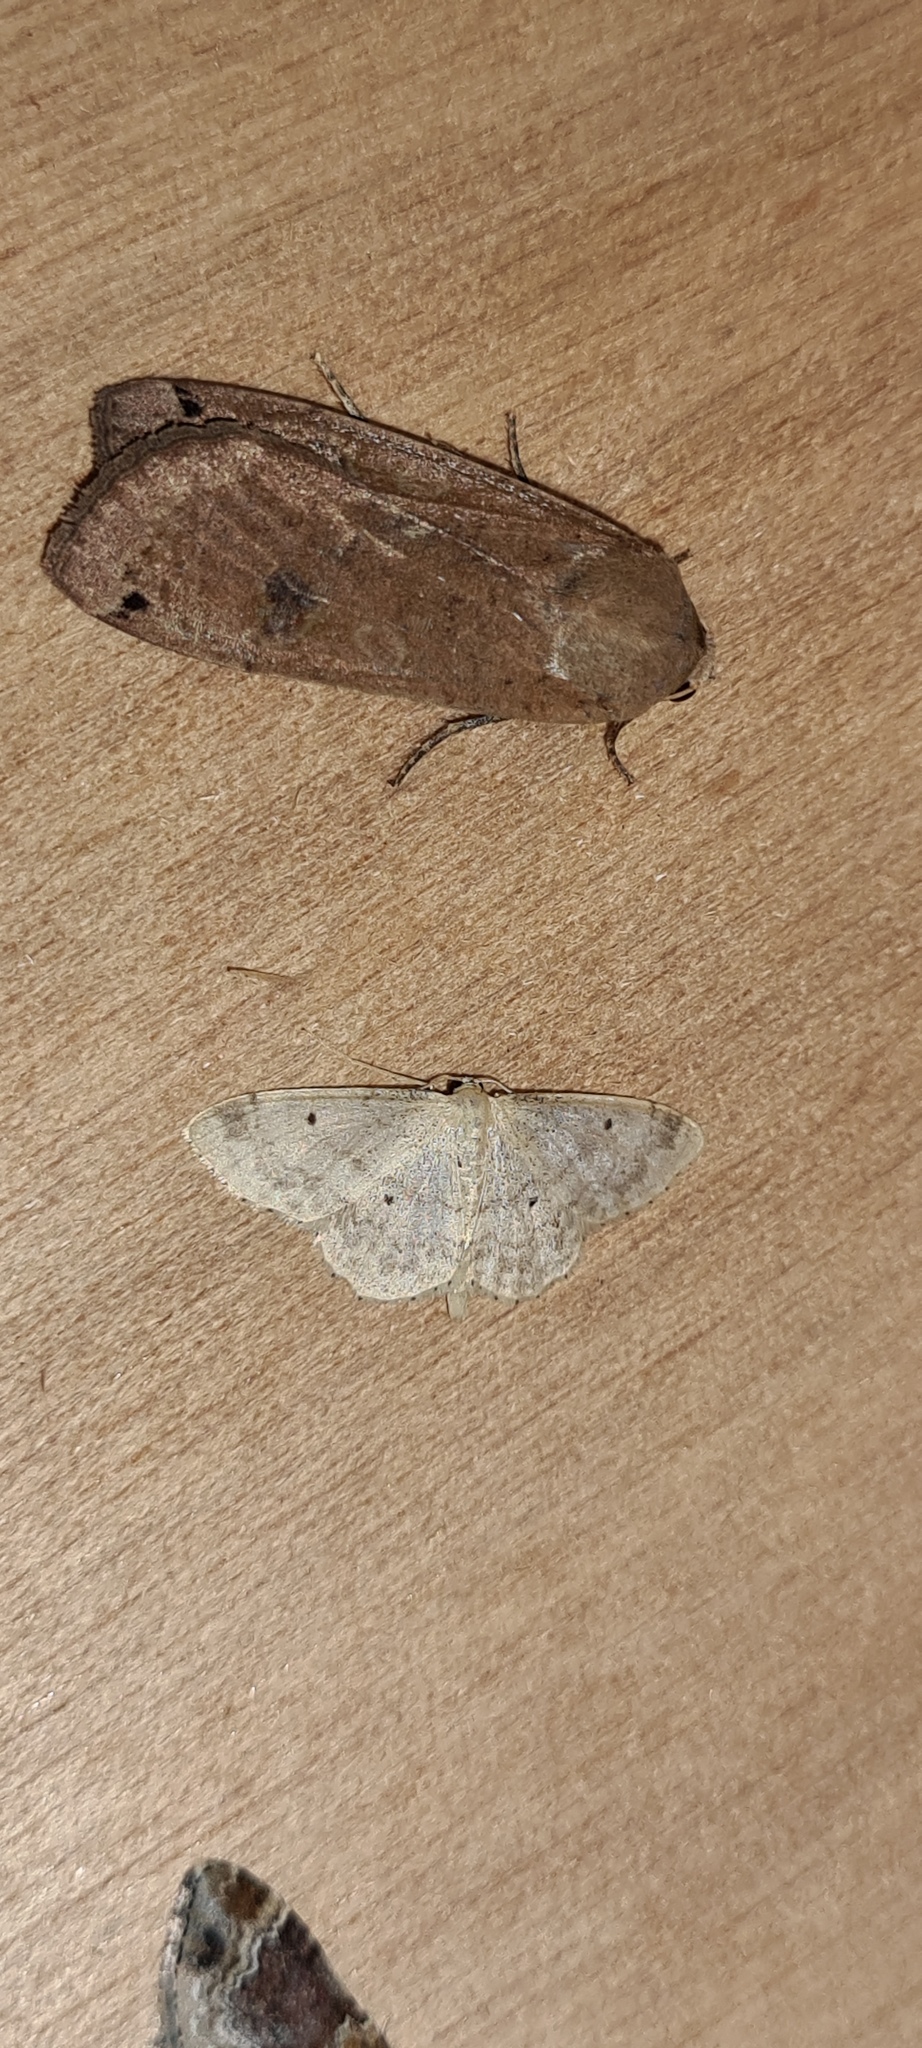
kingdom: Animalia
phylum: Arthropoda
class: Insecta
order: Lepidoptera
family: Geometridae
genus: Idaea
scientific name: Idaea biselata
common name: Small fan-footed wave
